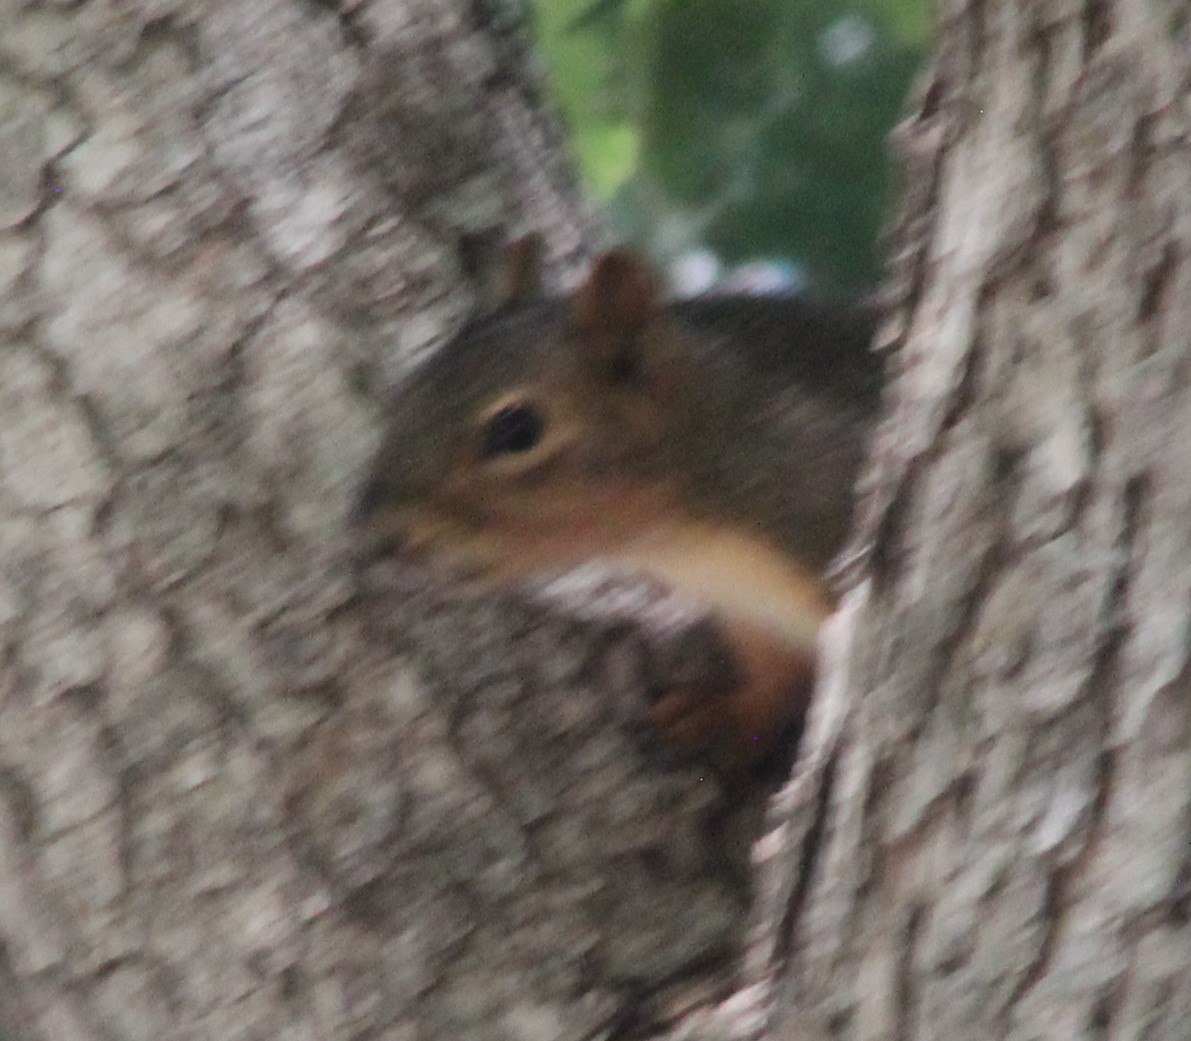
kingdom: Animalia
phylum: Chordata
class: Mammalia
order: Rodentia
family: Sciuridae
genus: Sciurus
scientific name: Sciurus niger
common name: Fox squirrel
